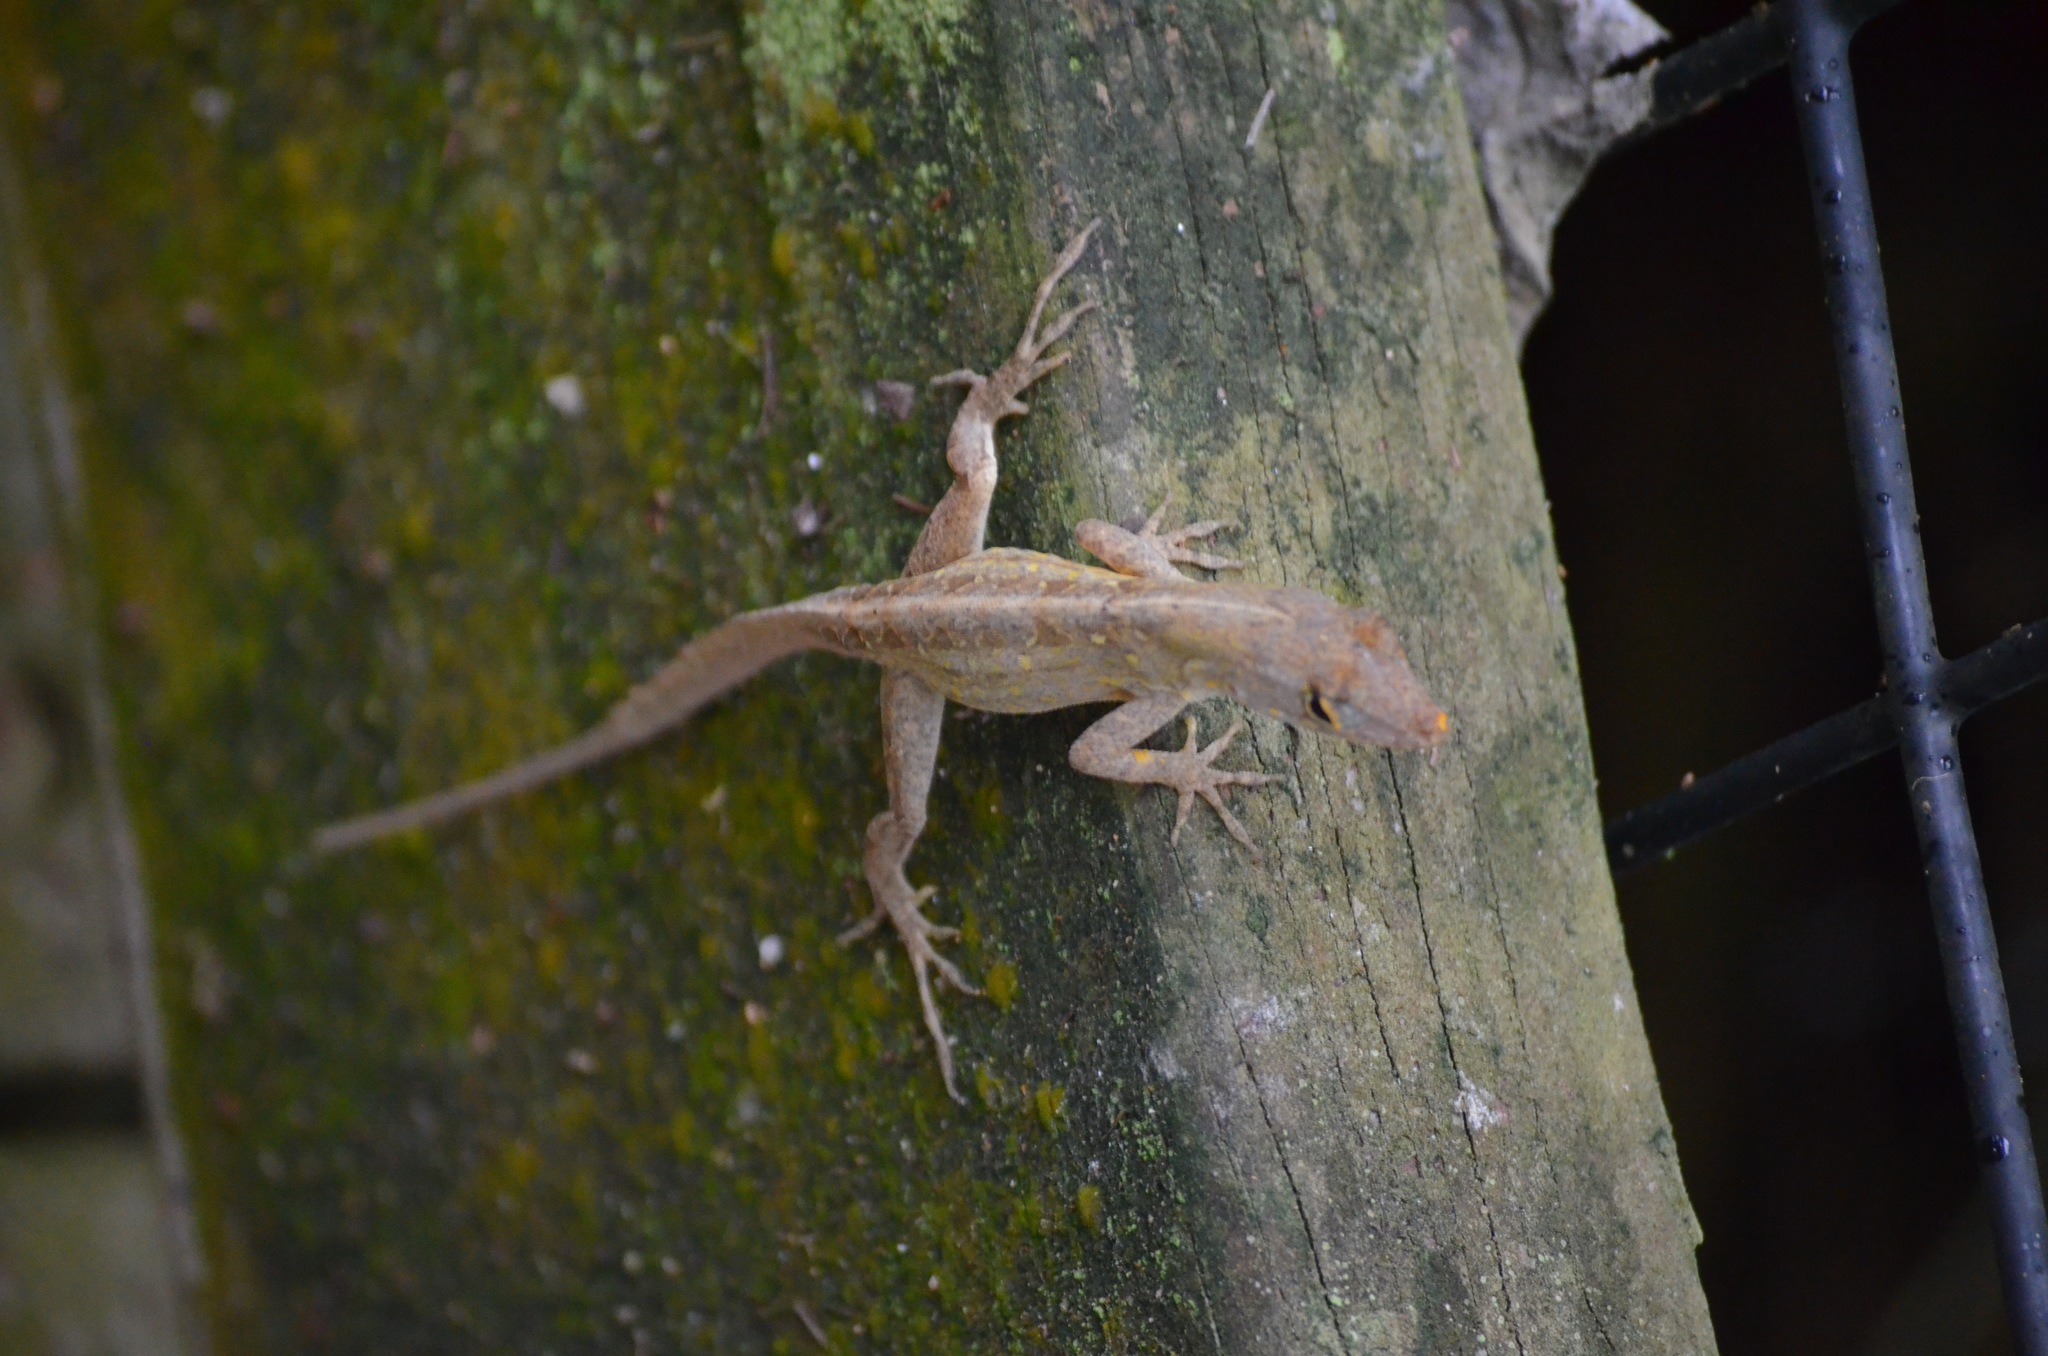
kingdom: Animalia
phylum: Chordata
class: Squamata
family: Dactyloidae
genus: Anolis
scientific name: Anolis sagrei
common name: Brown anole
